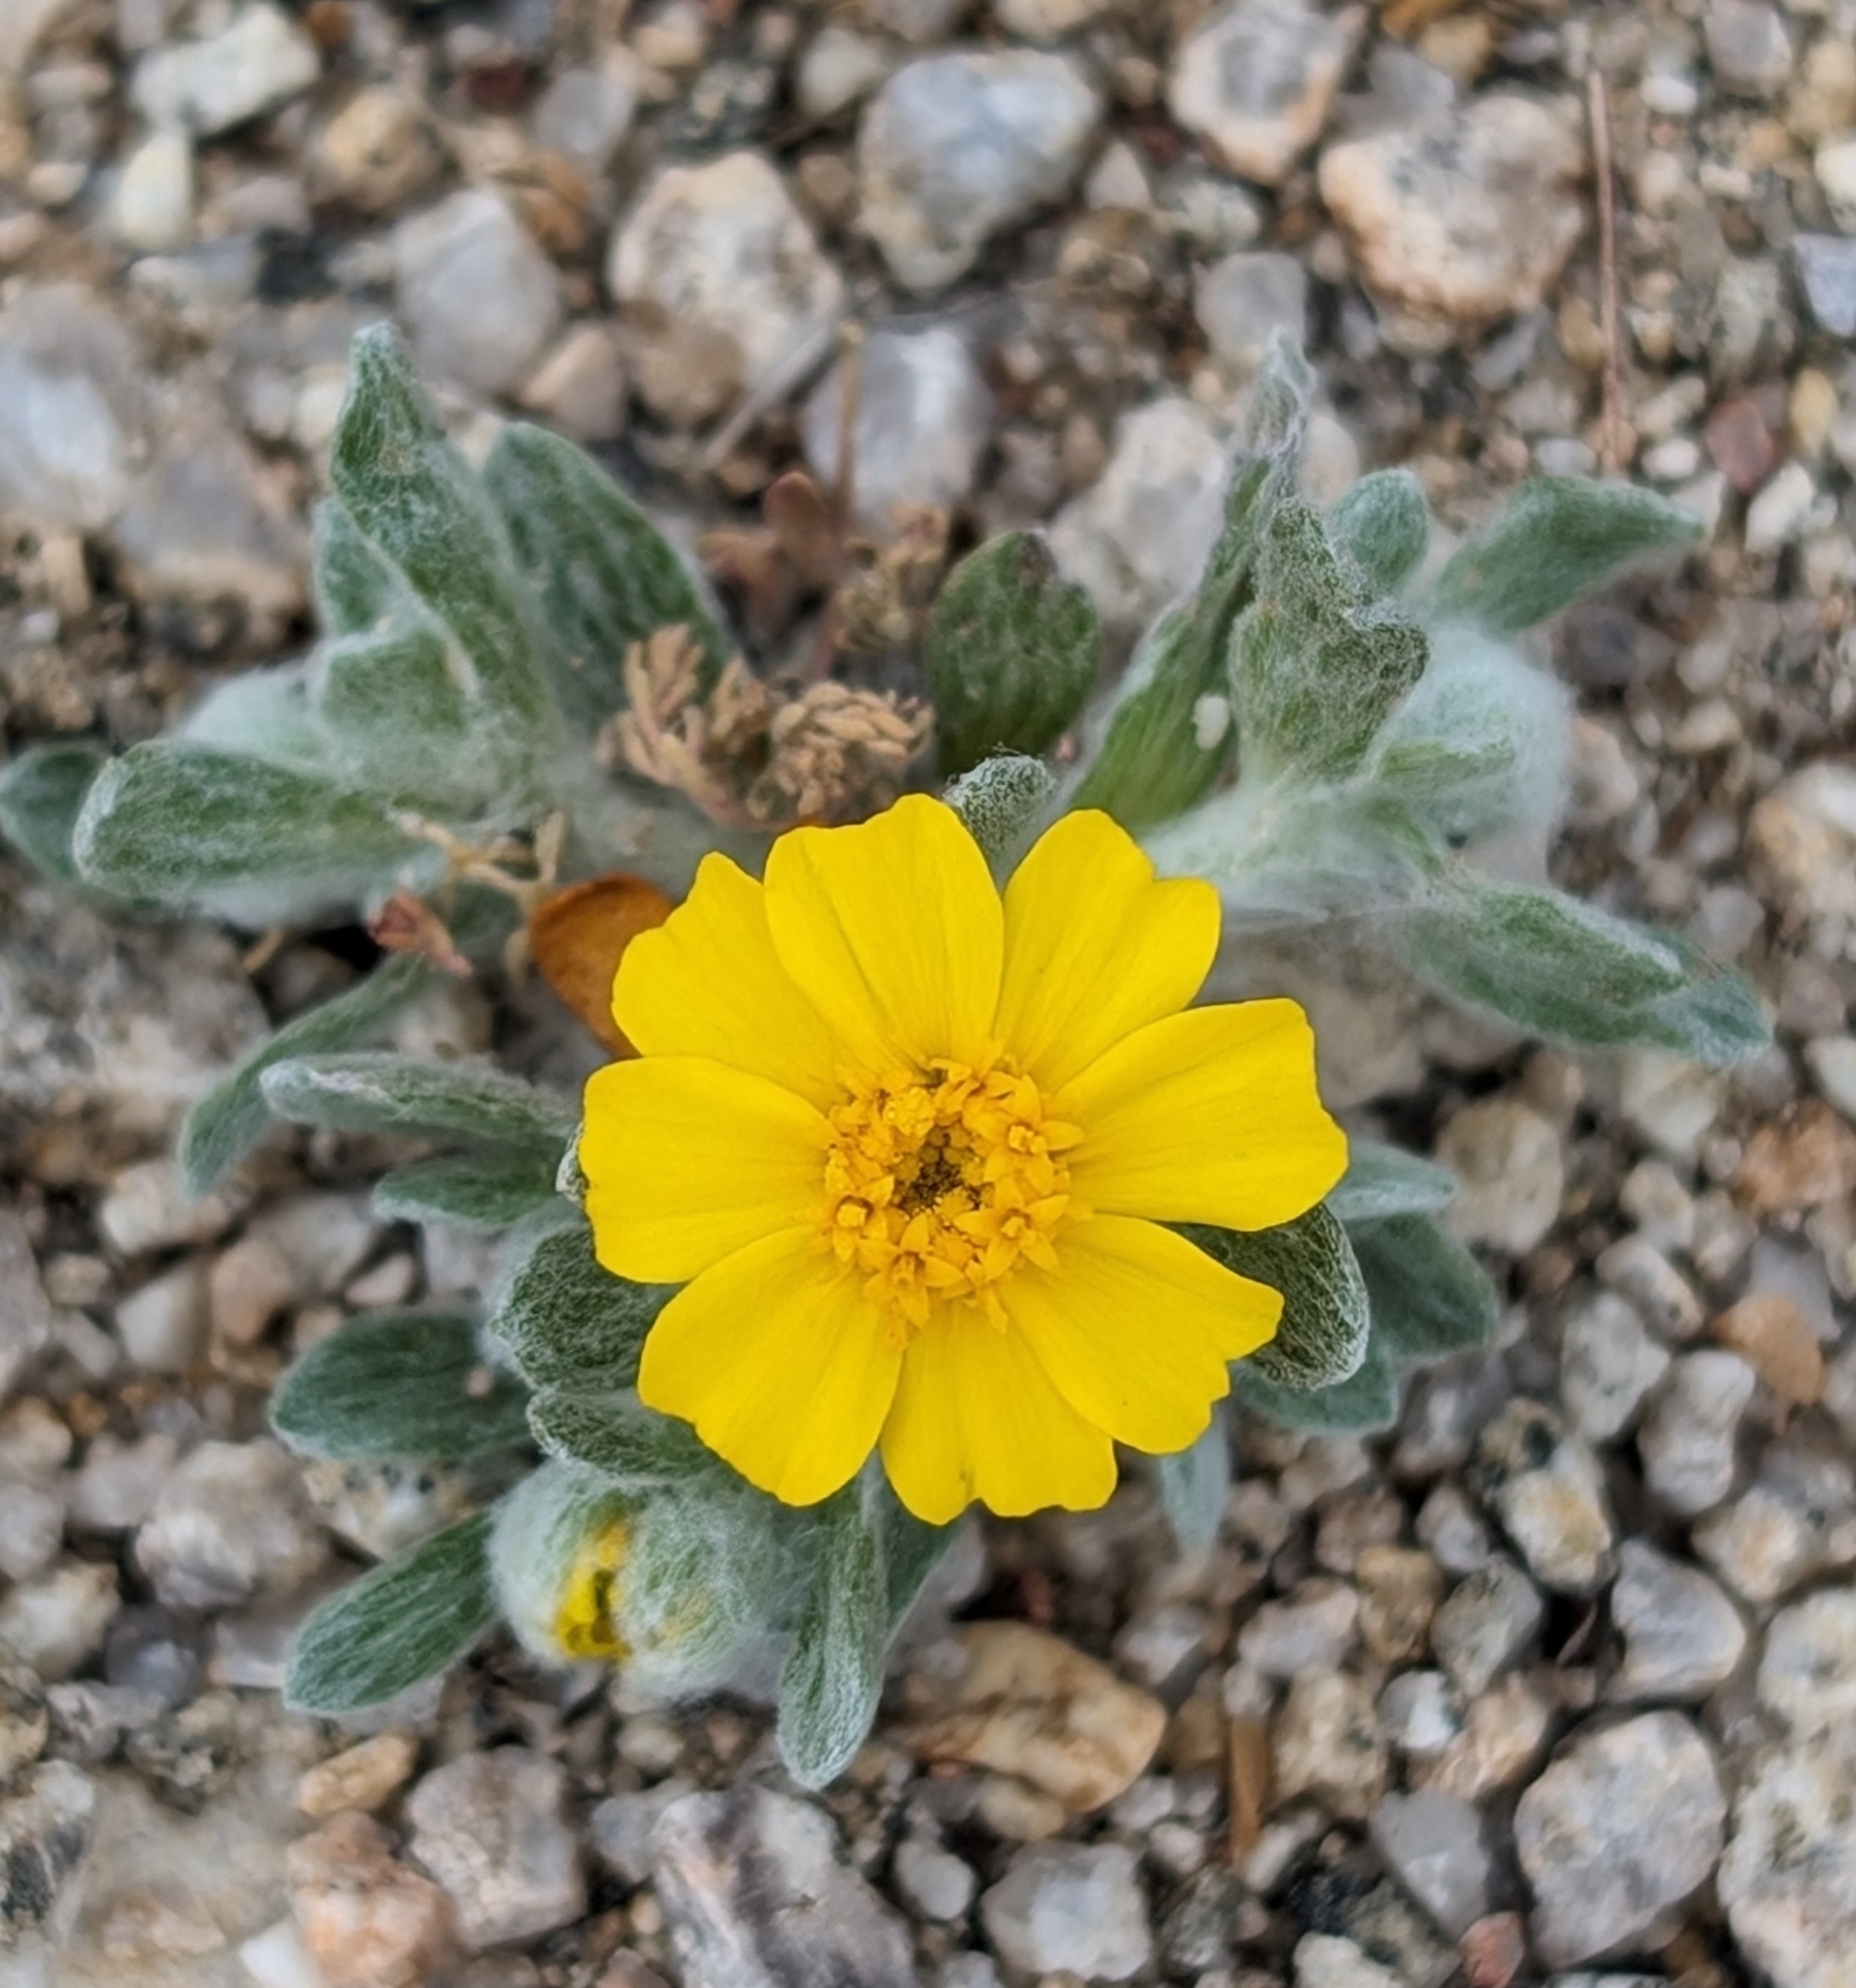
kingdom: Plantae
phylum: Tracheophyta
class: Magnoliopsida
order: Asterales
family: Asteraceae
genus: Eriophyllum
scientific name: Eriophyllum wallacei
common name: Wallace's woolly daisy
